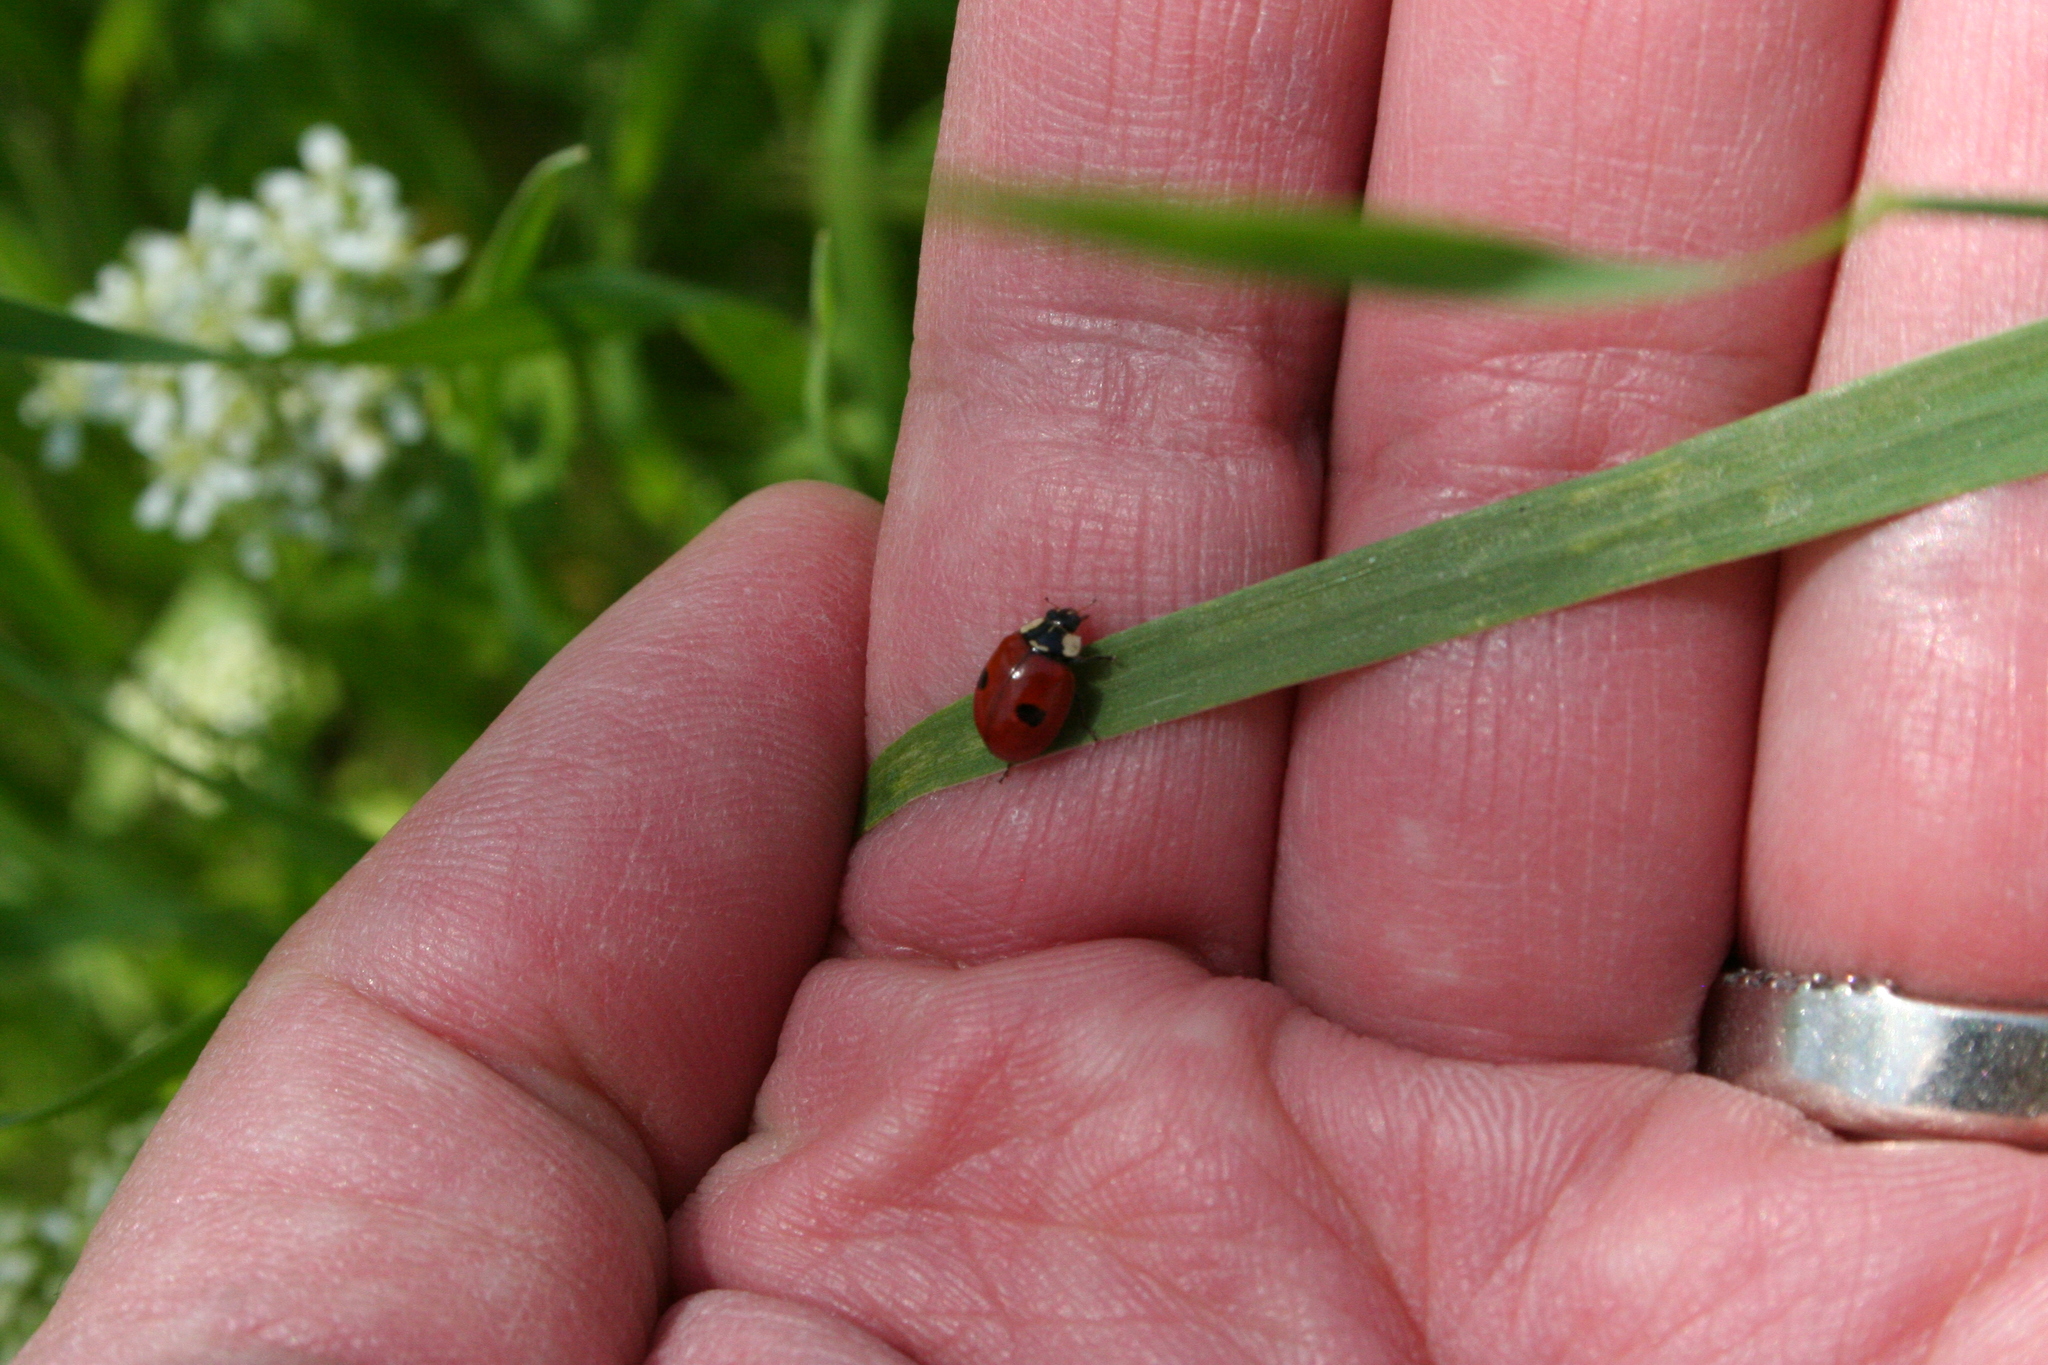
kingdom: Animalia
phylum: Arthropoda
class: Insecta
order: Coleoptera
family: Coccinellidae
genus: Adalia
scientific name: Adalia bipunctata
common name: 2-spot ladybird
